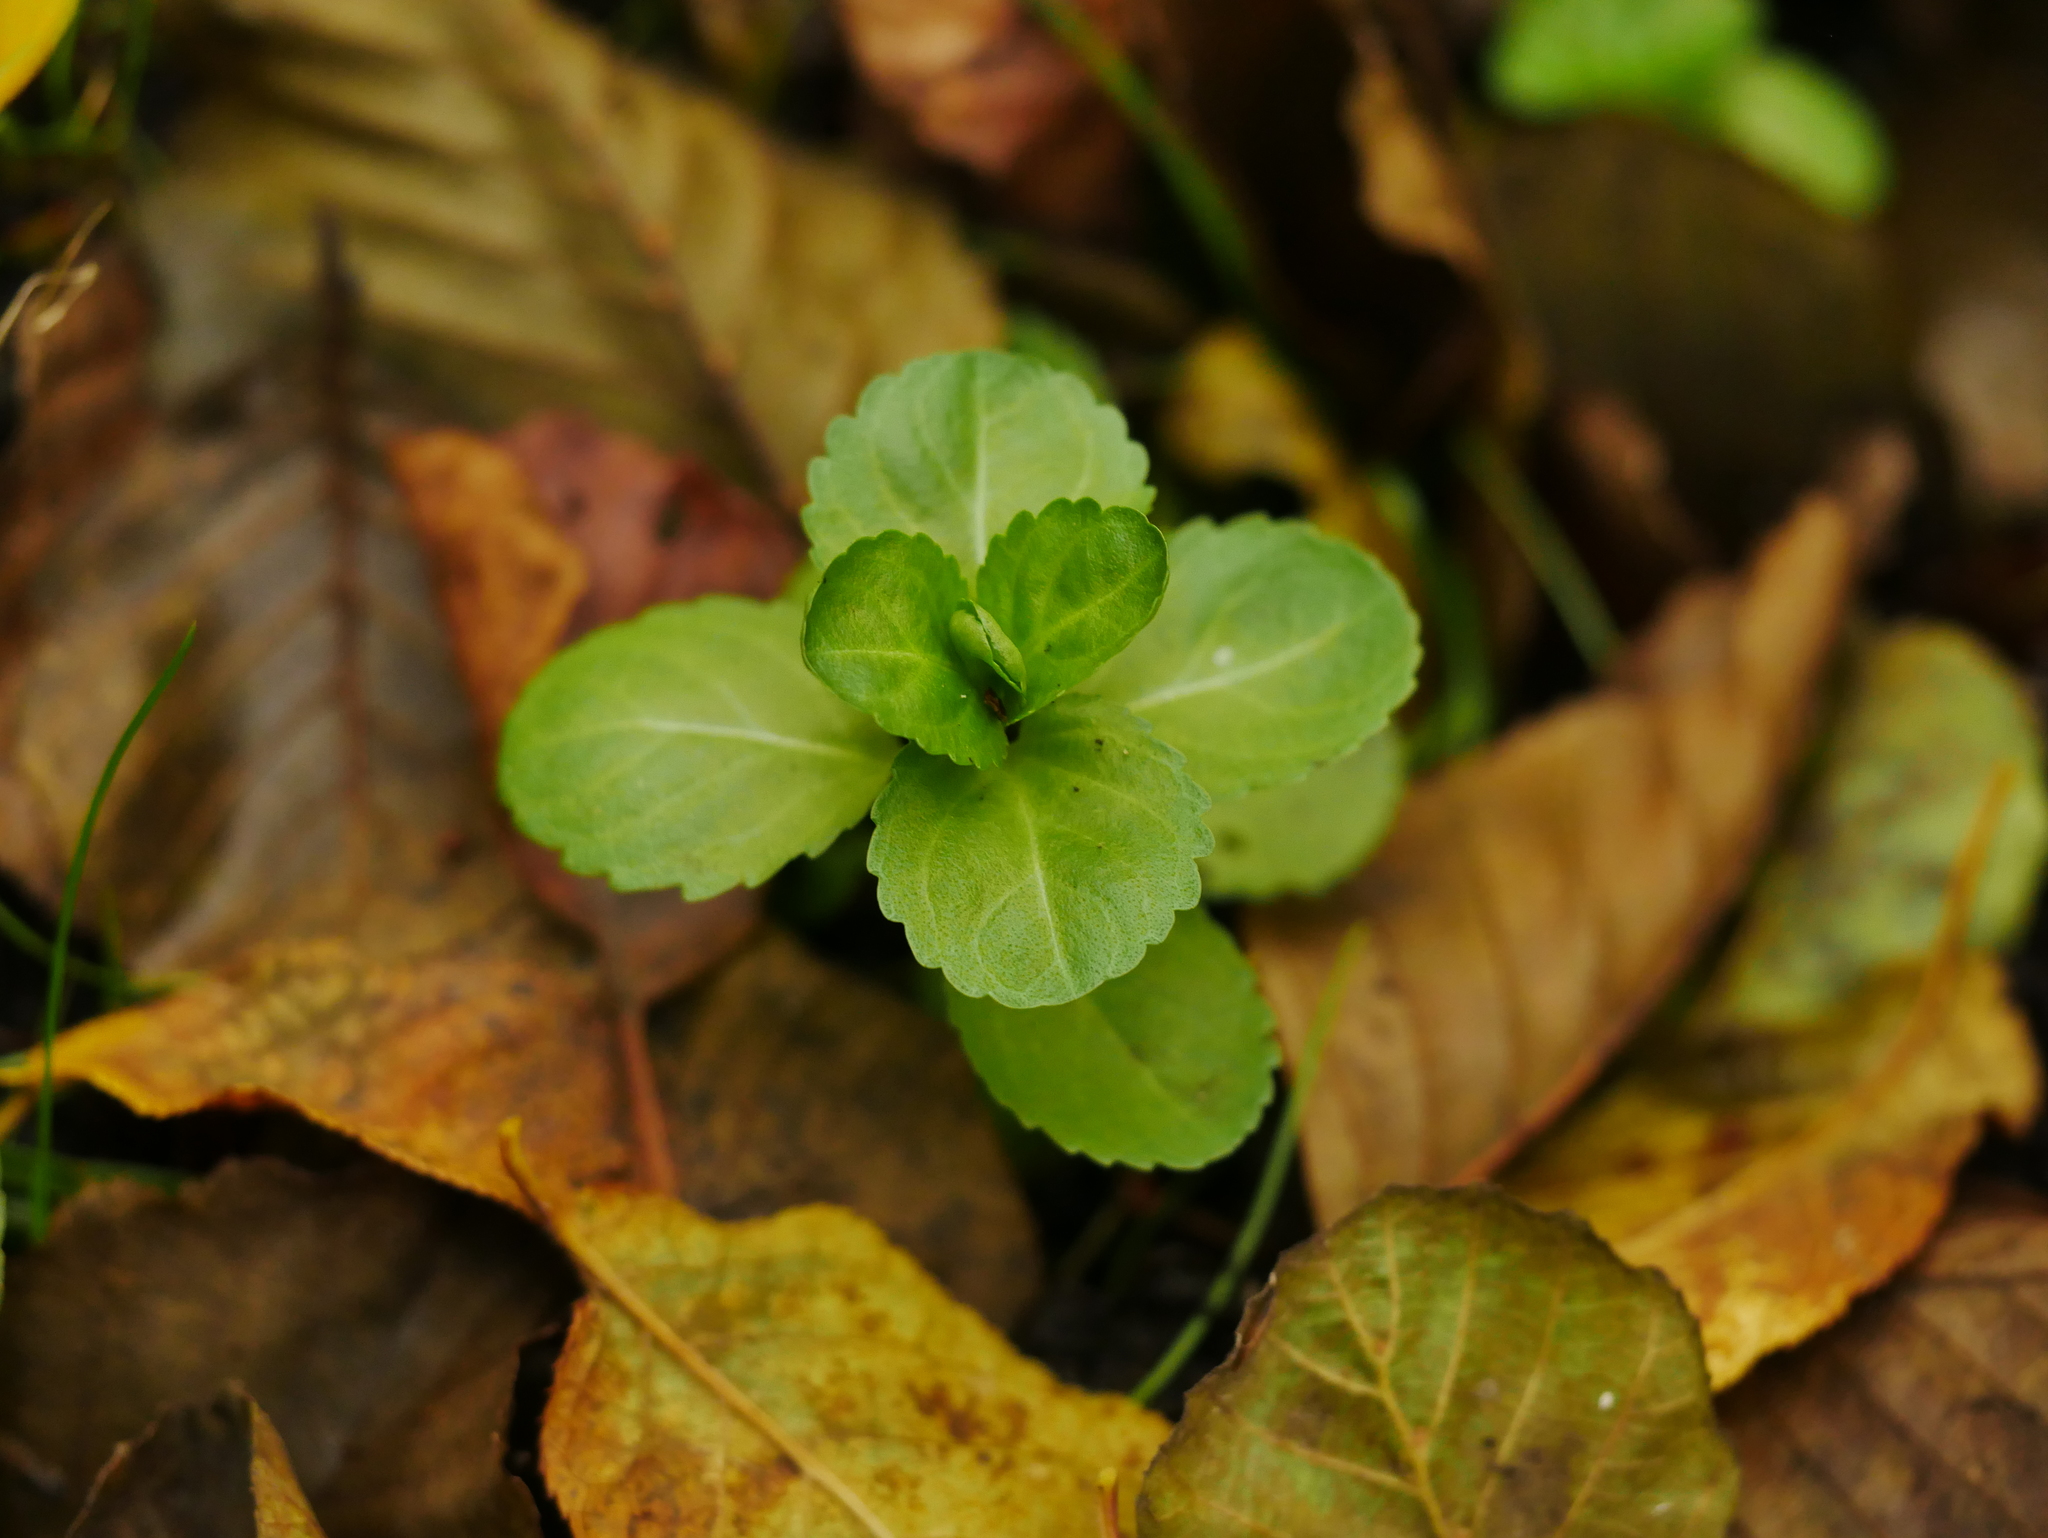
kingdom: Plantae
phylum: Tracheophyta
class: Magnoliopsida
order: Lamiales
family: Plantaginaceae
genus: Veronica
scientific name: Veronica beccabunga
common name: Brooklime
